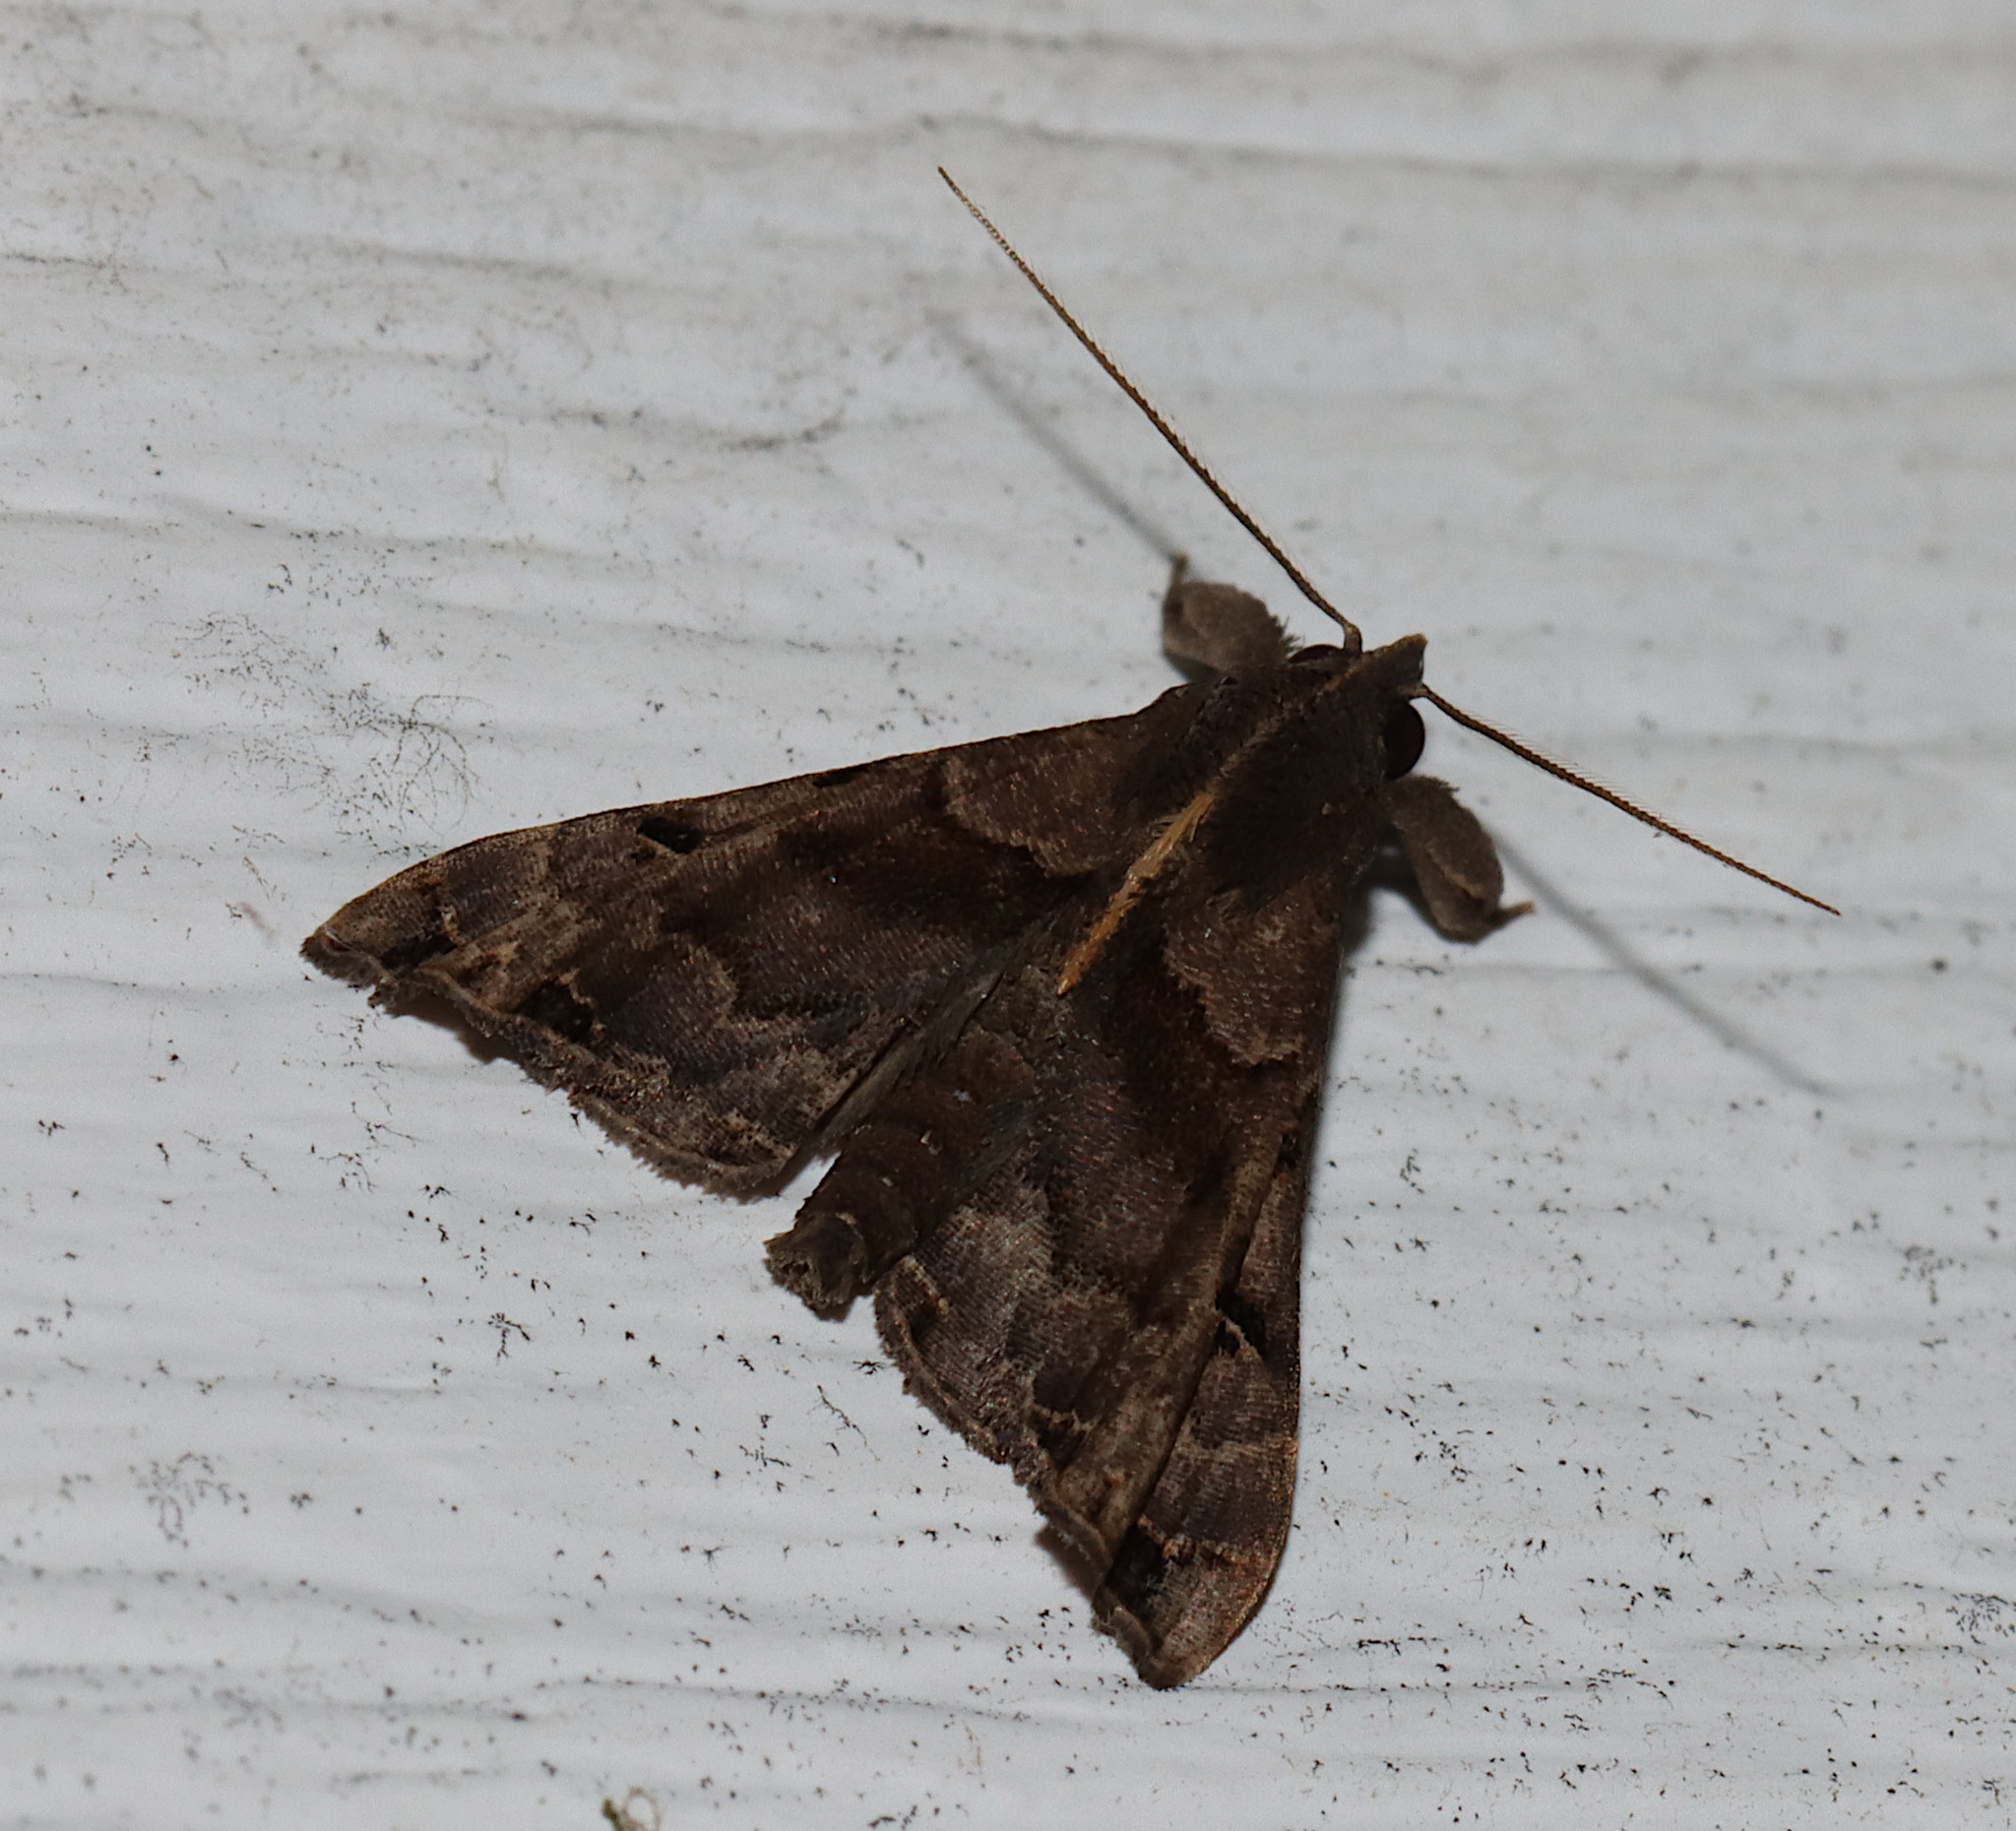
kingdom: Animalia
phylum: Arthropoda
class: Insecta
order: Lepidoptera
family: Erebidae
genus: Palthis
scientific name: Palthis asopialis
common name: Faint-spotted palthis moth
